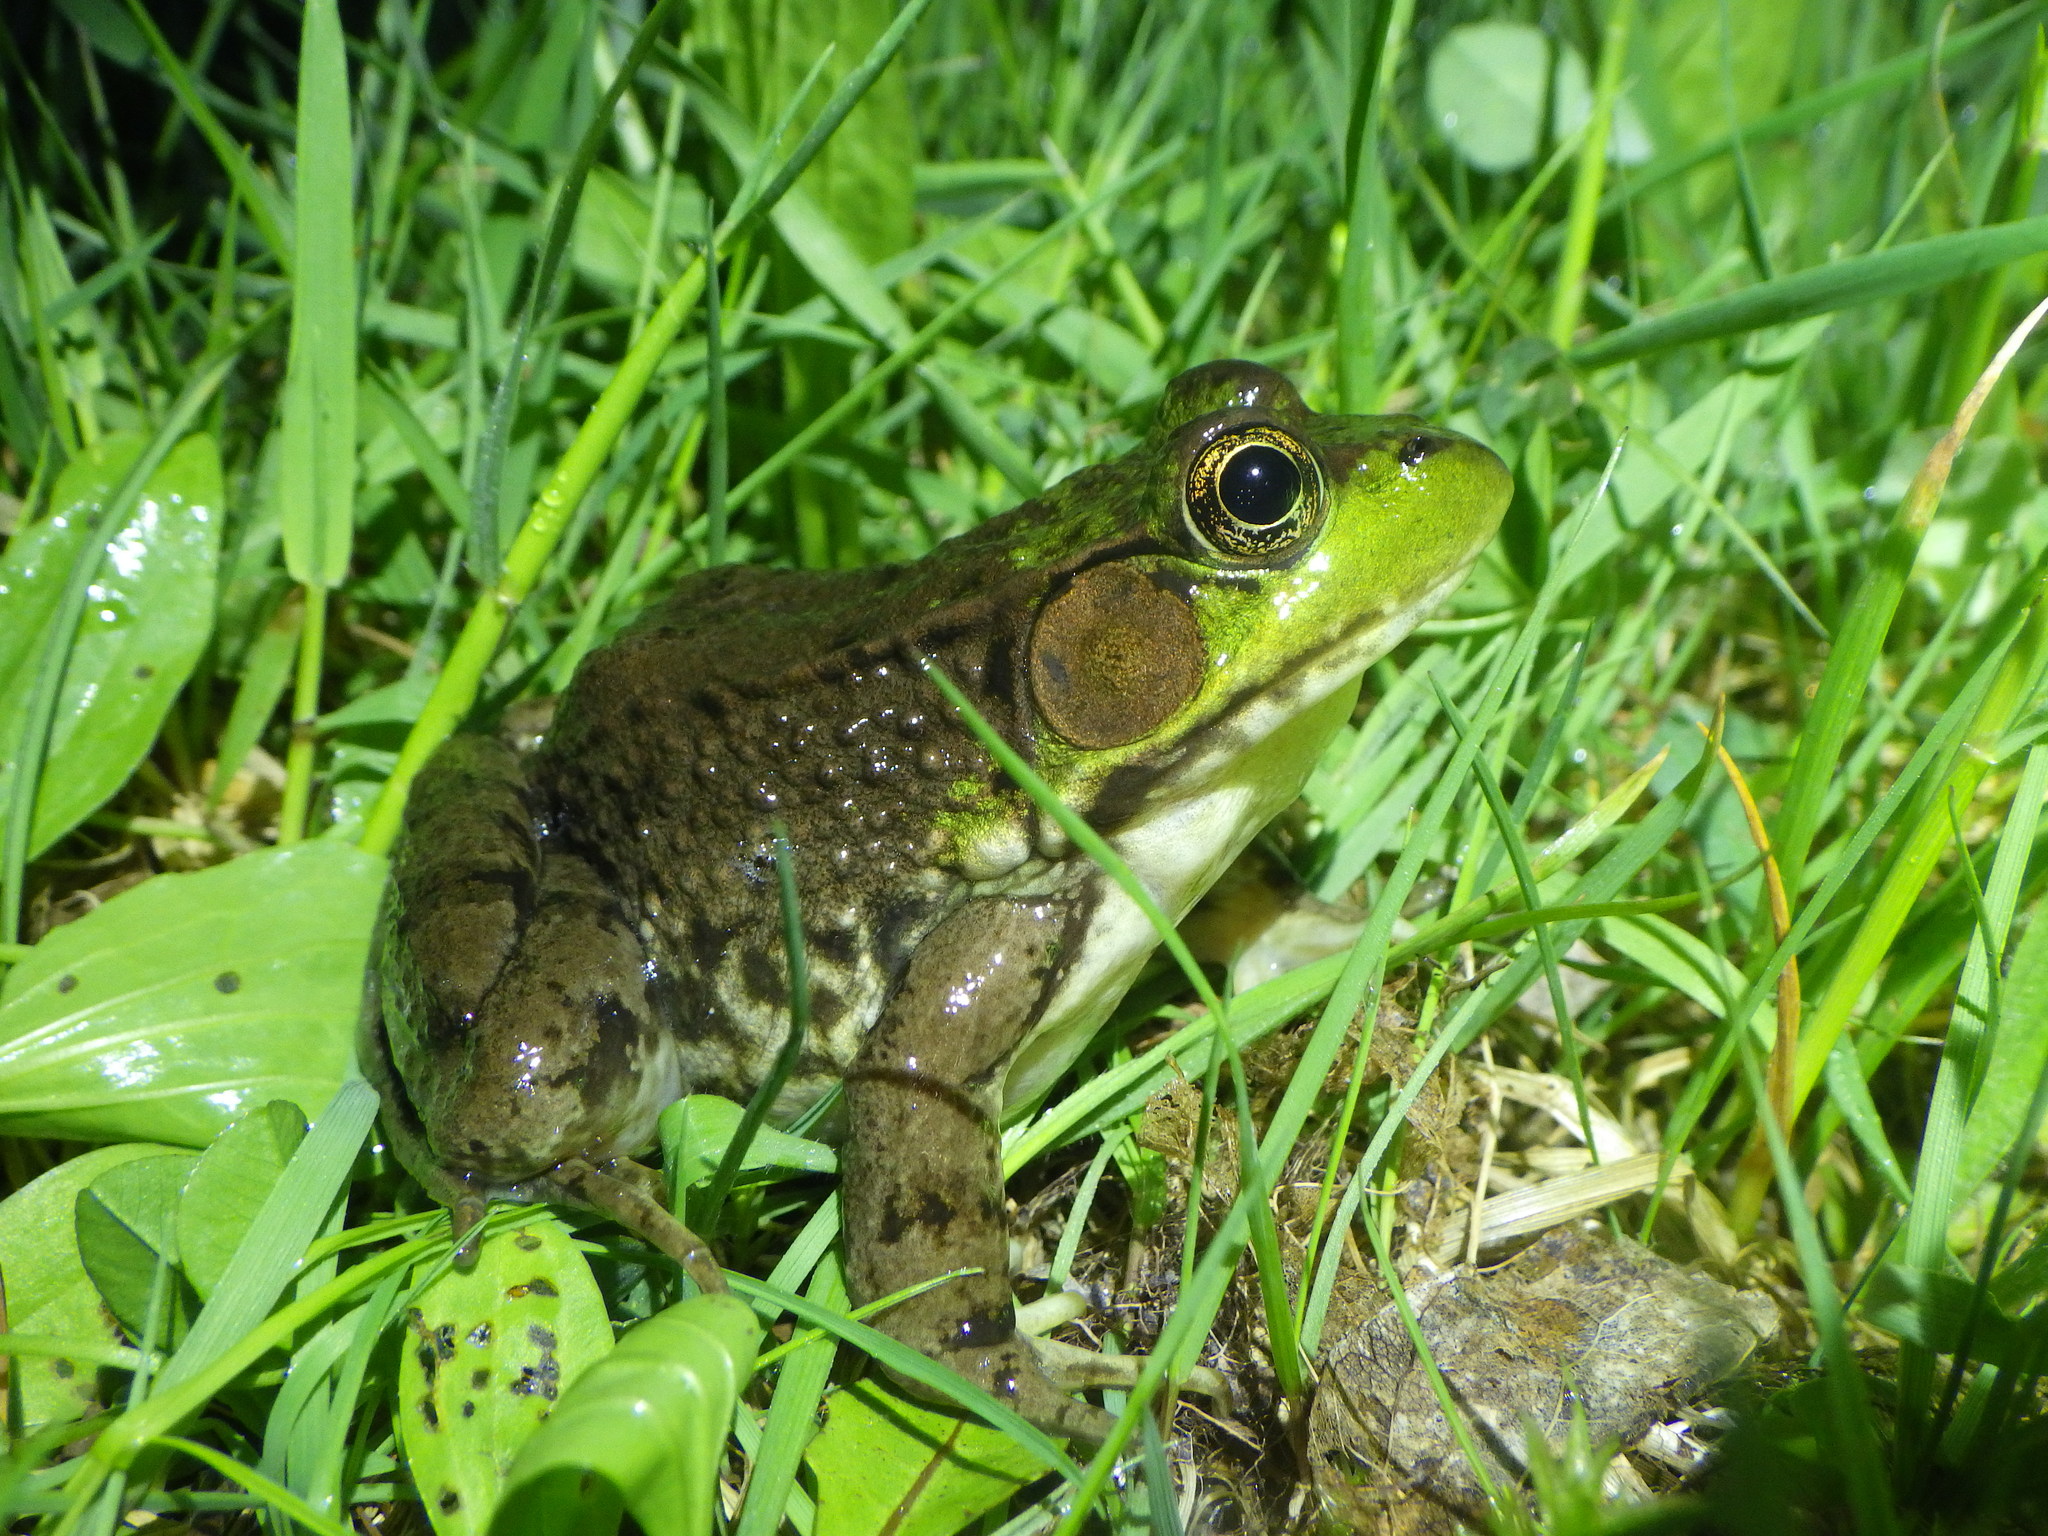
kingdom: Animalia
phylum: Chordata
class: Amphibia
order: Anura
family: Ranidae
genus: Lithobates
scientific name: Lithobates clamitans
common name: Green frog
